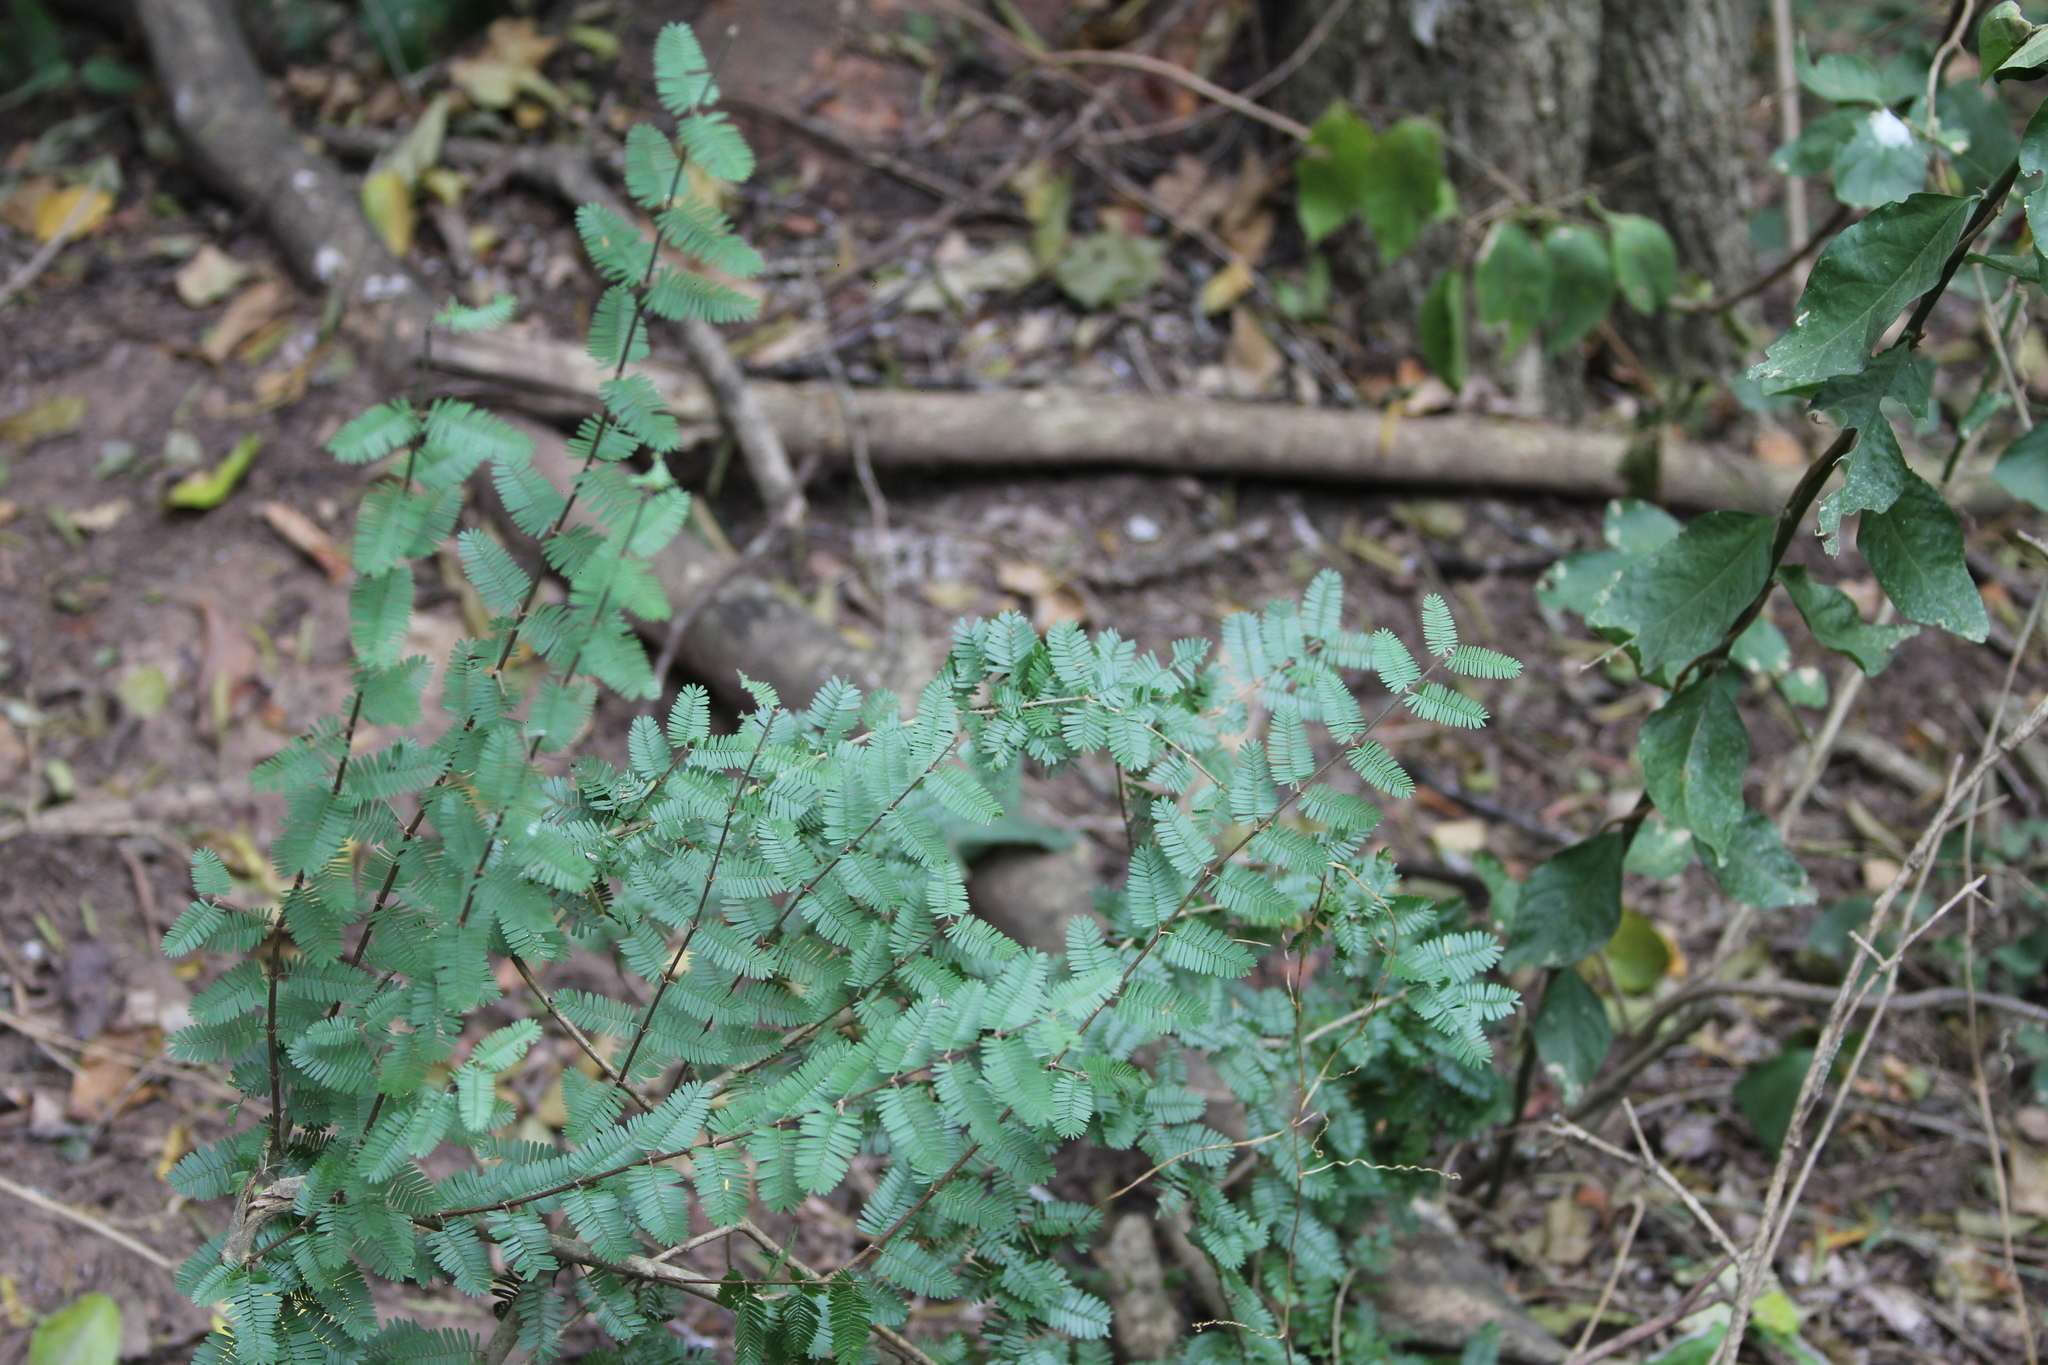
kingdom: Plantae
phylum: Tracheophyta
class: Magnoliopsida
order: Zygophyllales
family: Zygophyllaceae
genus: Porlieria
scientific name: Porlieria microphylla
